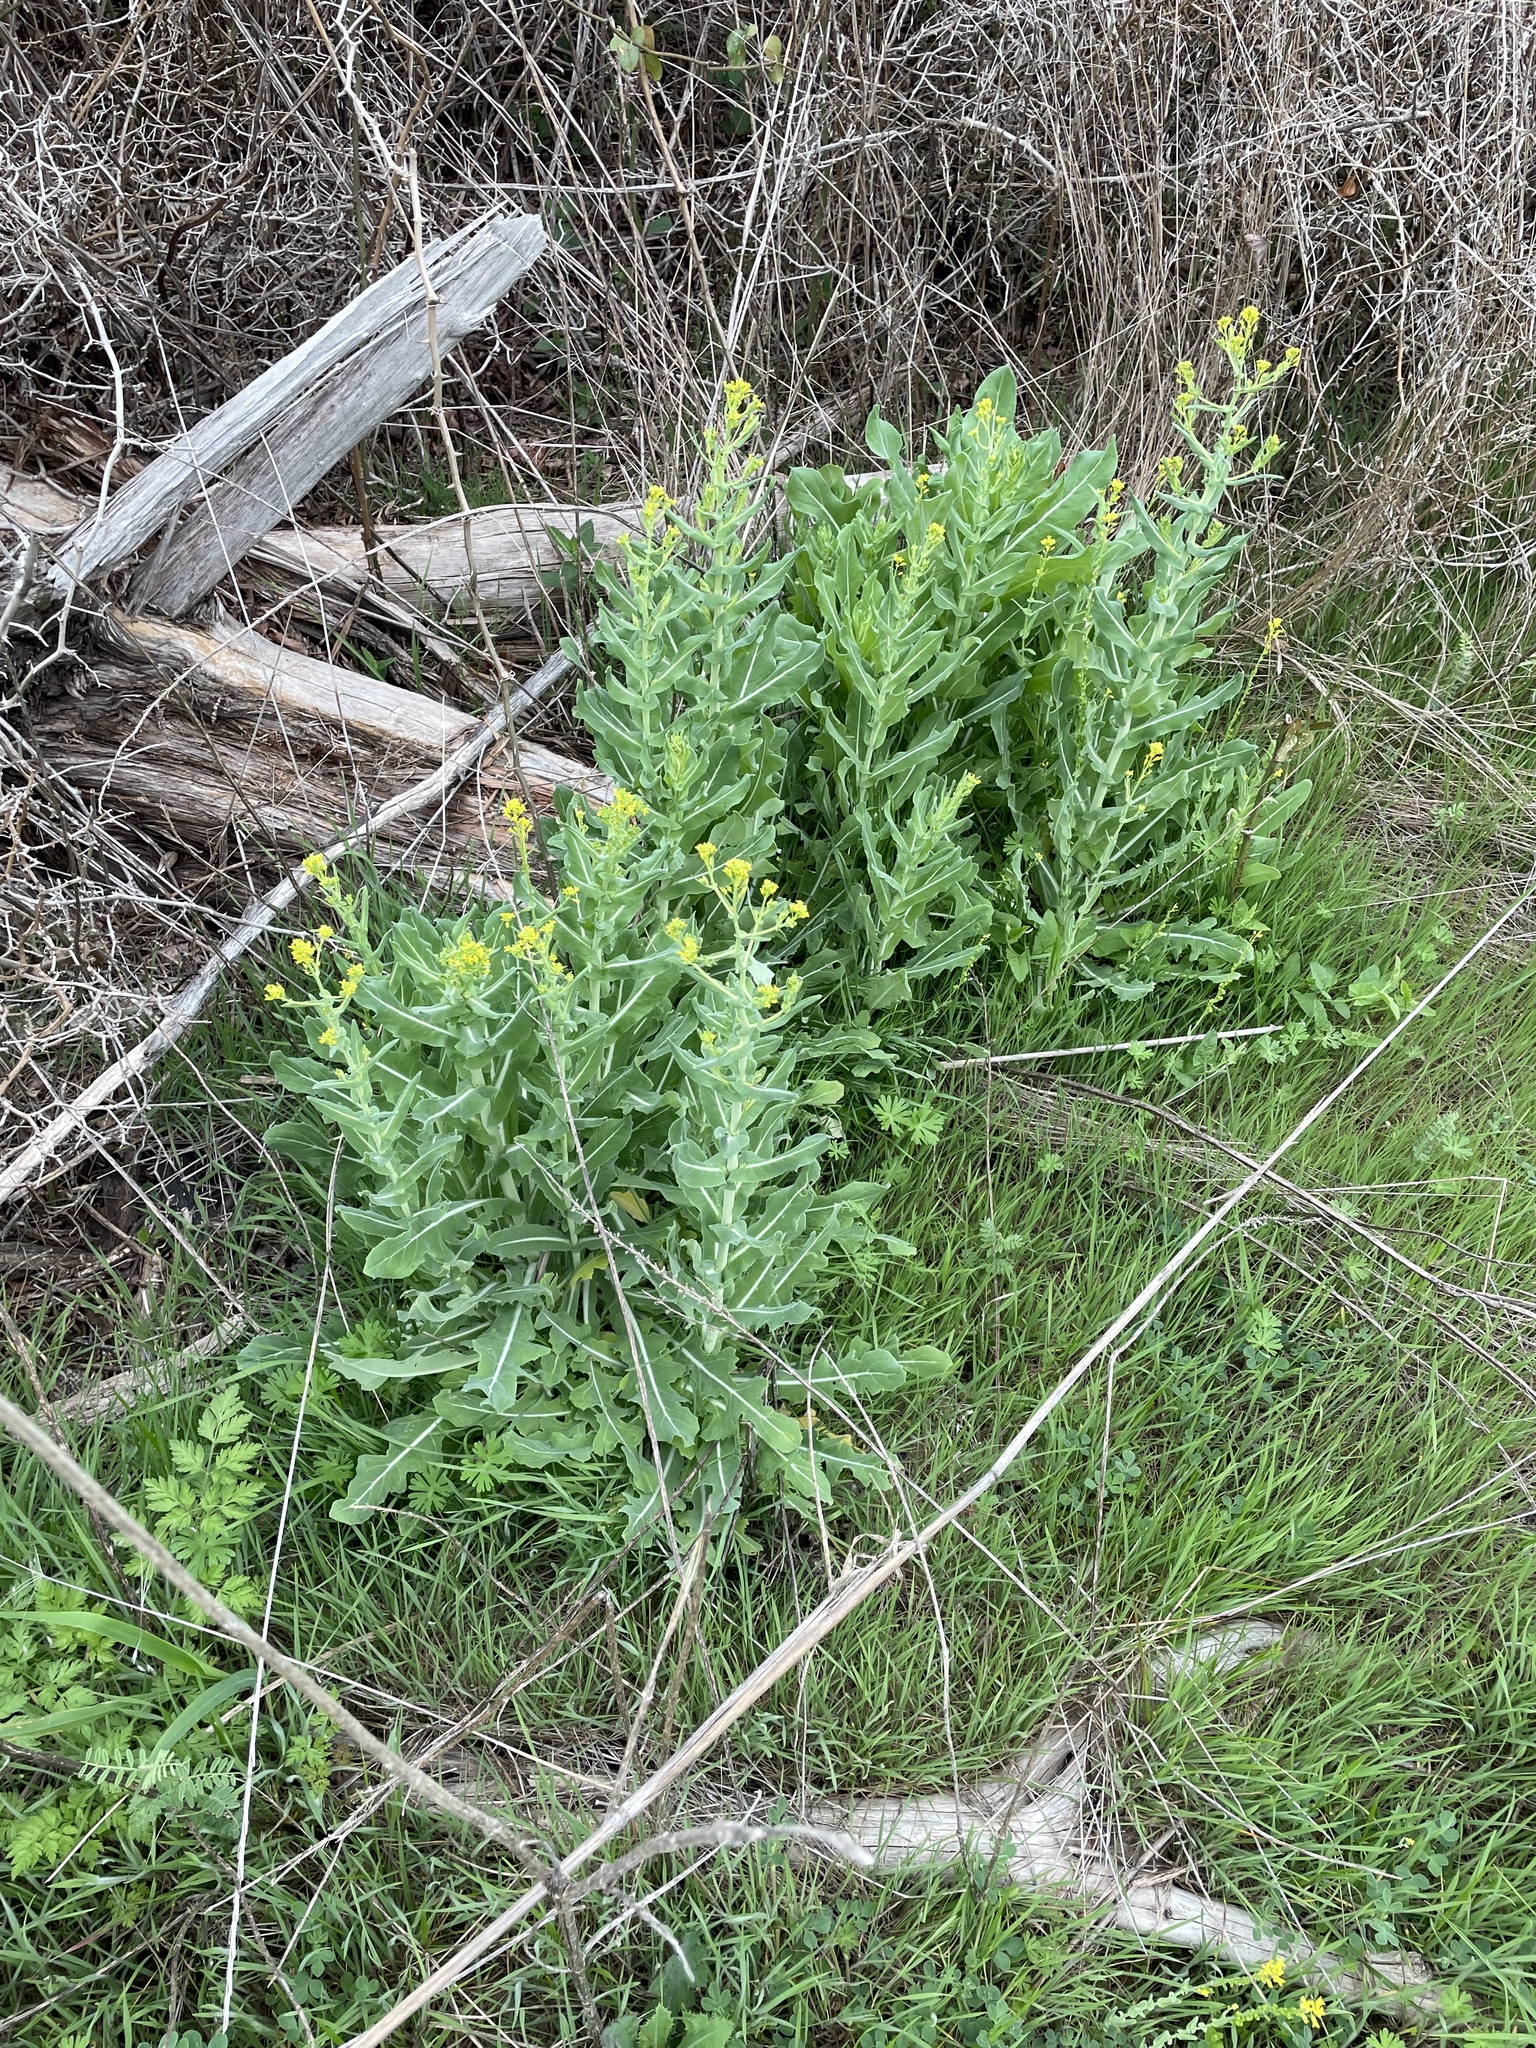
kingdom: Plantae
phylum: Tracheophyta
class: Magnoliopsida
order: Brassicales
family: Brassicaceae
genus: Myagrum
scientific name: Myagrum perfoliatum
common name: Mitre cress
